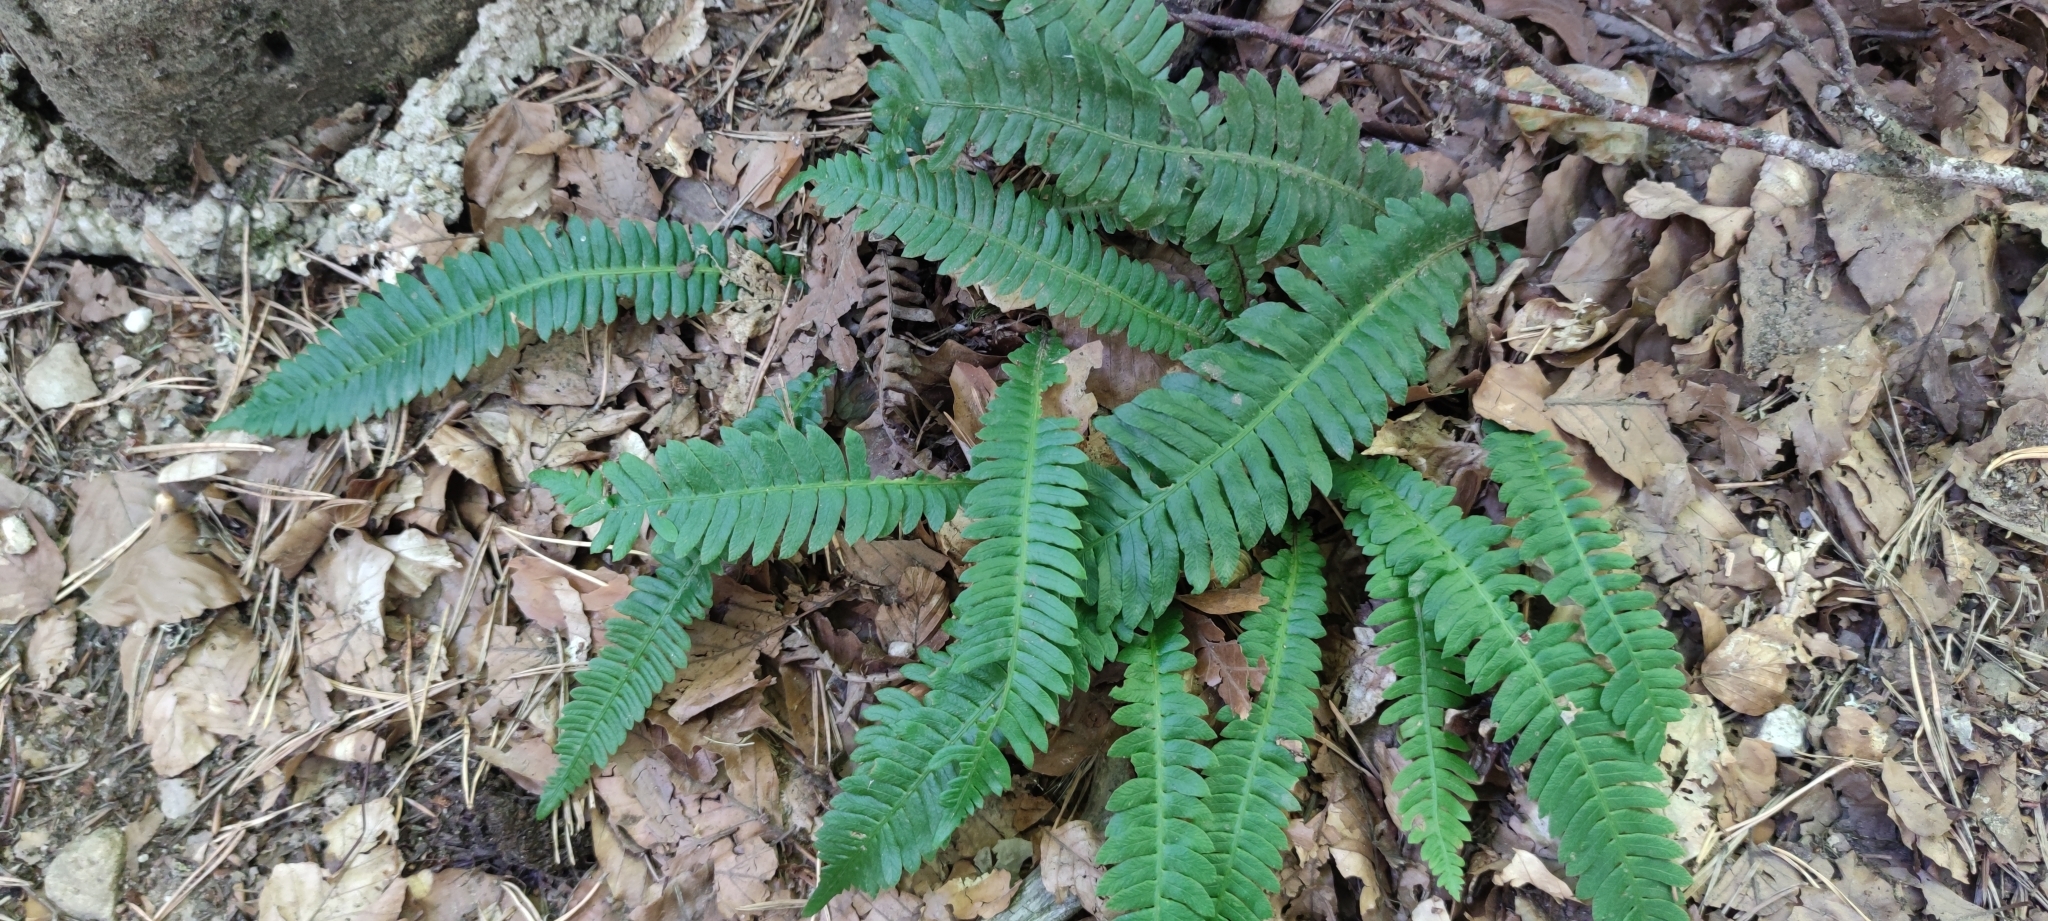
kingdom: Plantae
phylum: Tracheophyta
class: Polypodiopsida
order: Polypodiales
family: Blechnaceae
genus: Struthiopteris
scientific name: Struthiopteris spicant
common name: Deer fern
